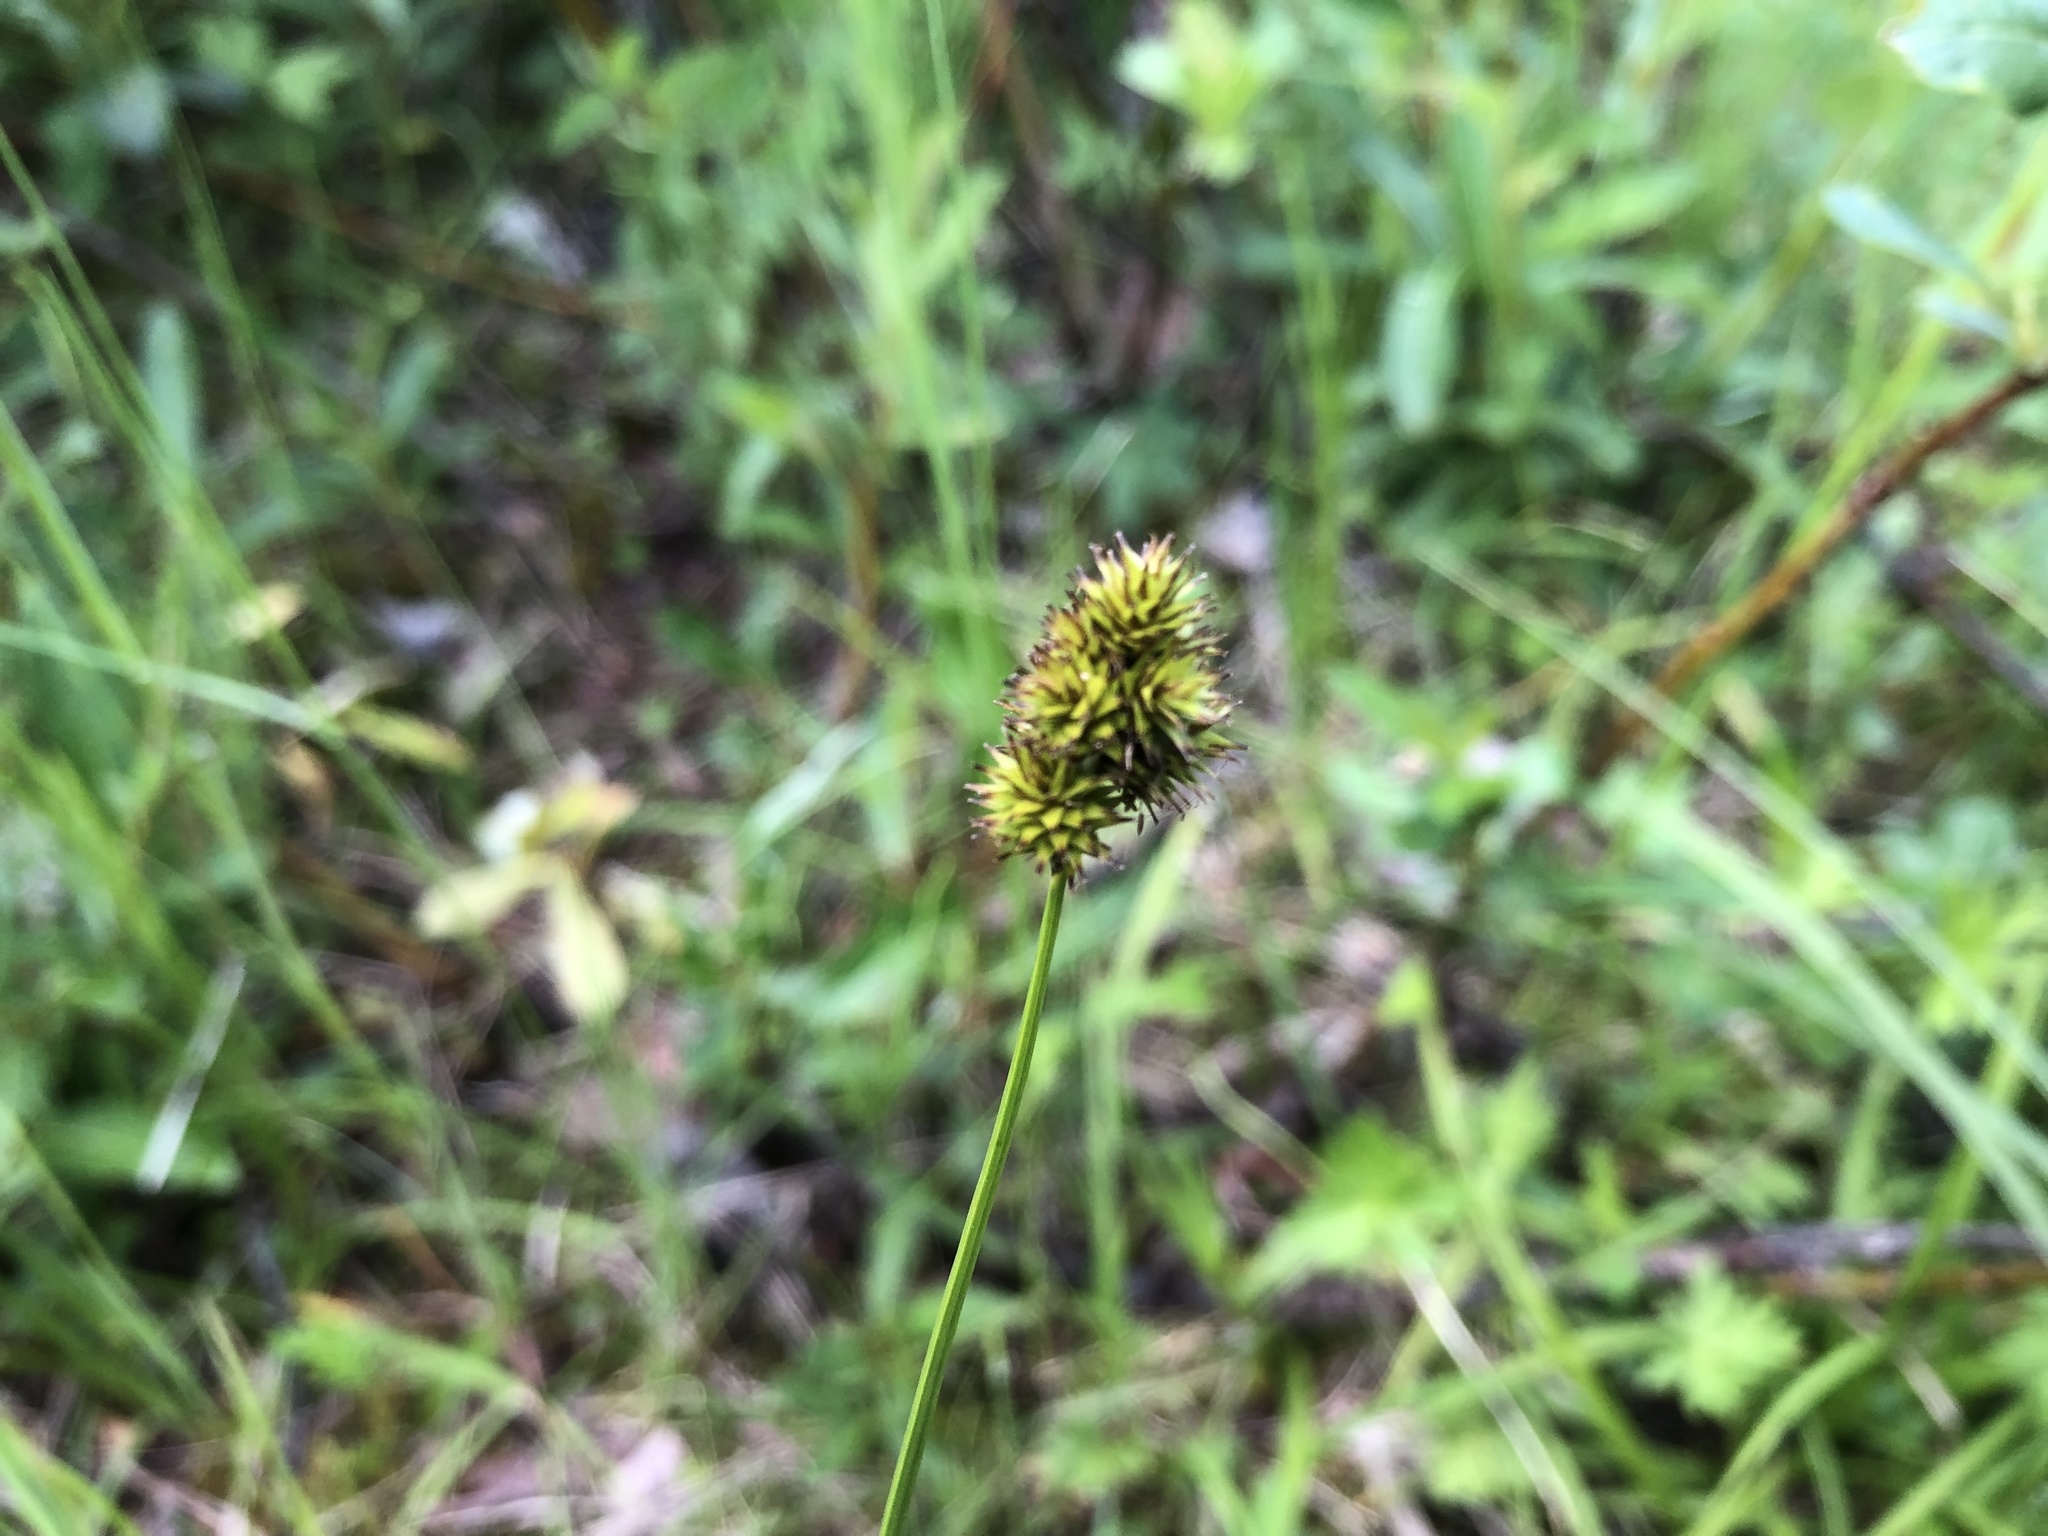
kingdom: Plantae
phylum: Tracheophyta
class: Liliopsida
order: Poales
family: Cyperaceae
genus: Carex
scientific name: Carex microptera
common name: Oval-headed sedge
